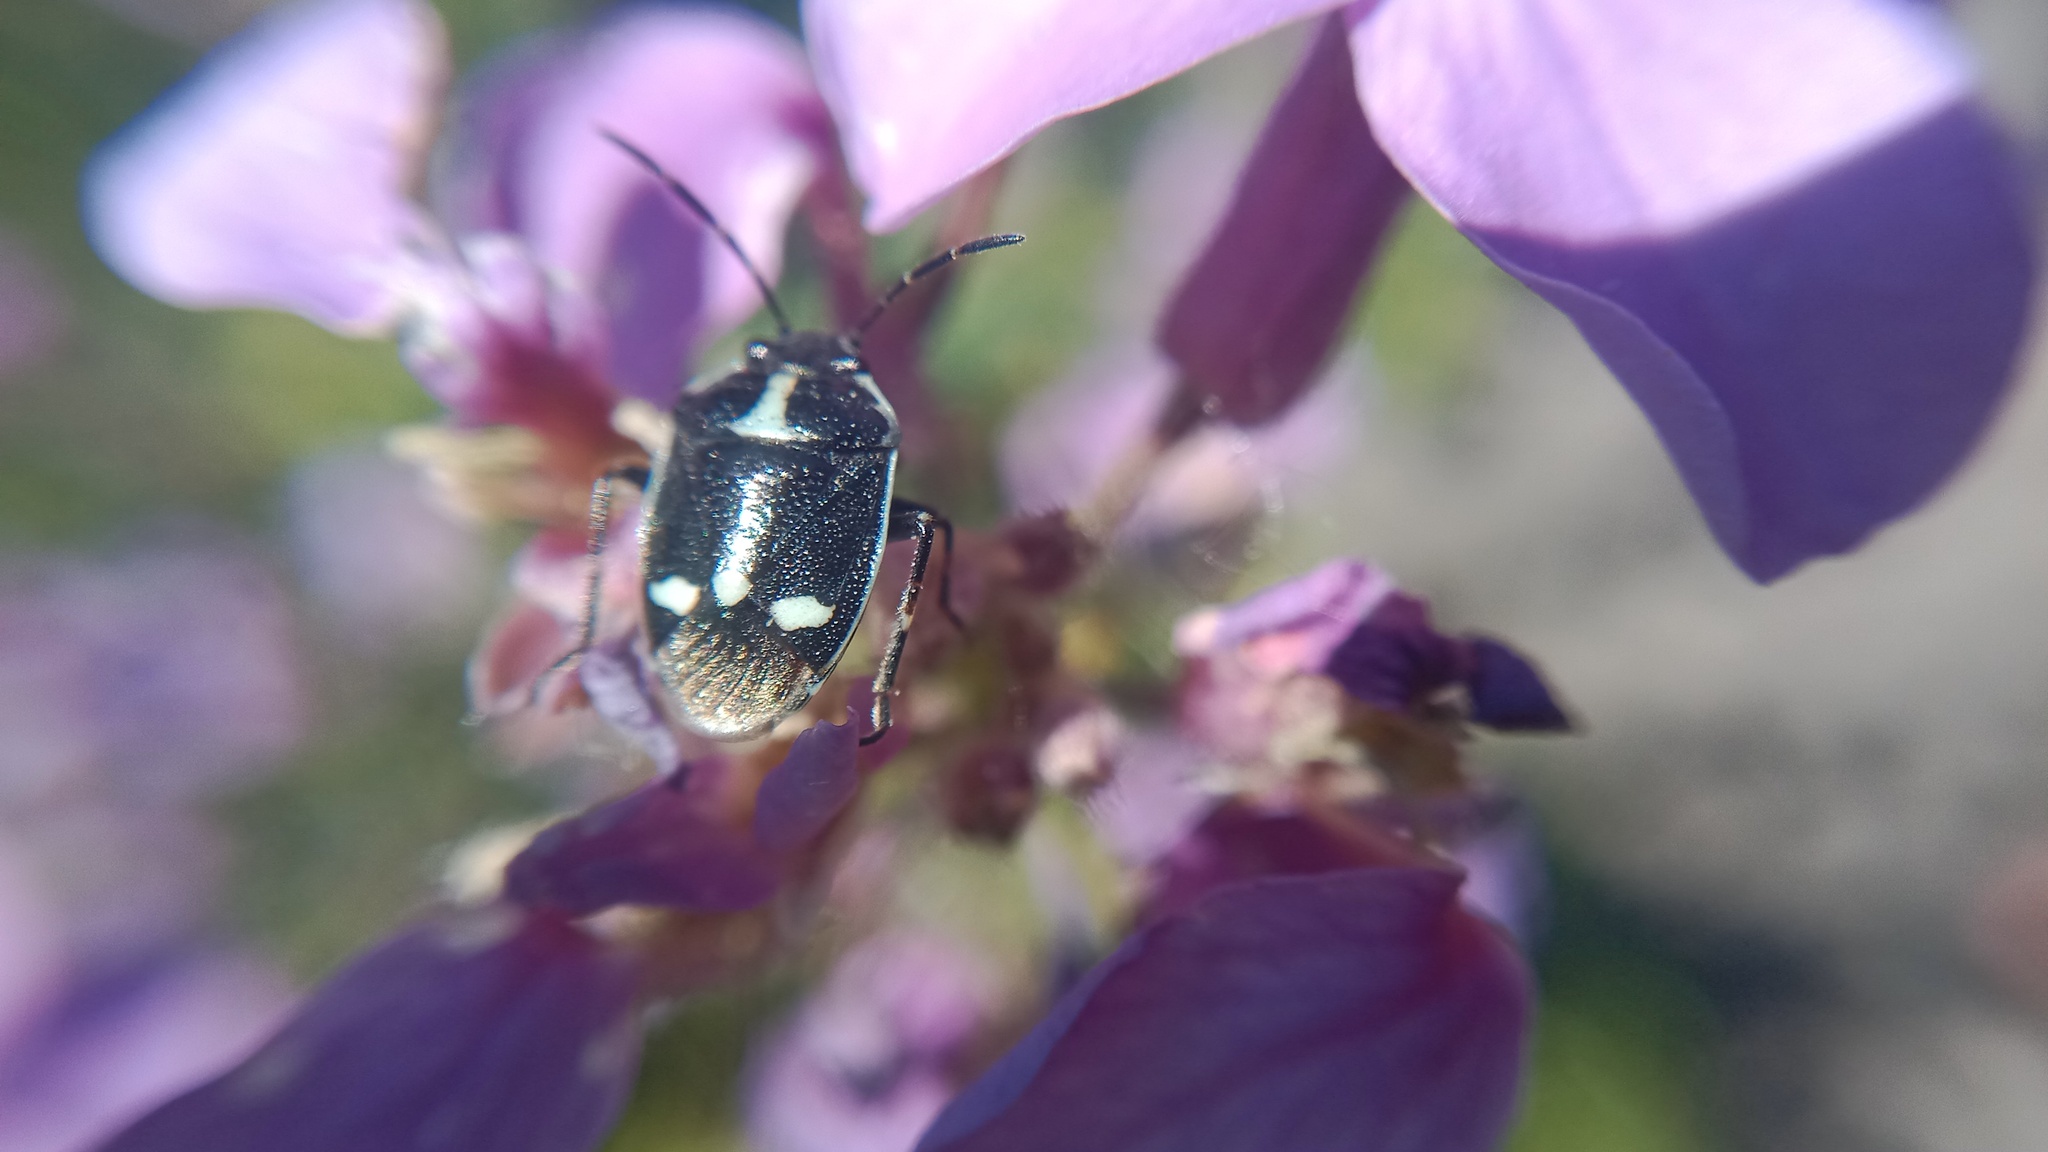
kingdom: Animalia
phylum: Arthropoda
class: Insecta
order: Hemiptera
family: Pentatomidae
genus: Eurydema
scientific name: Eurydema oleracea
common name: Cabbage bug
